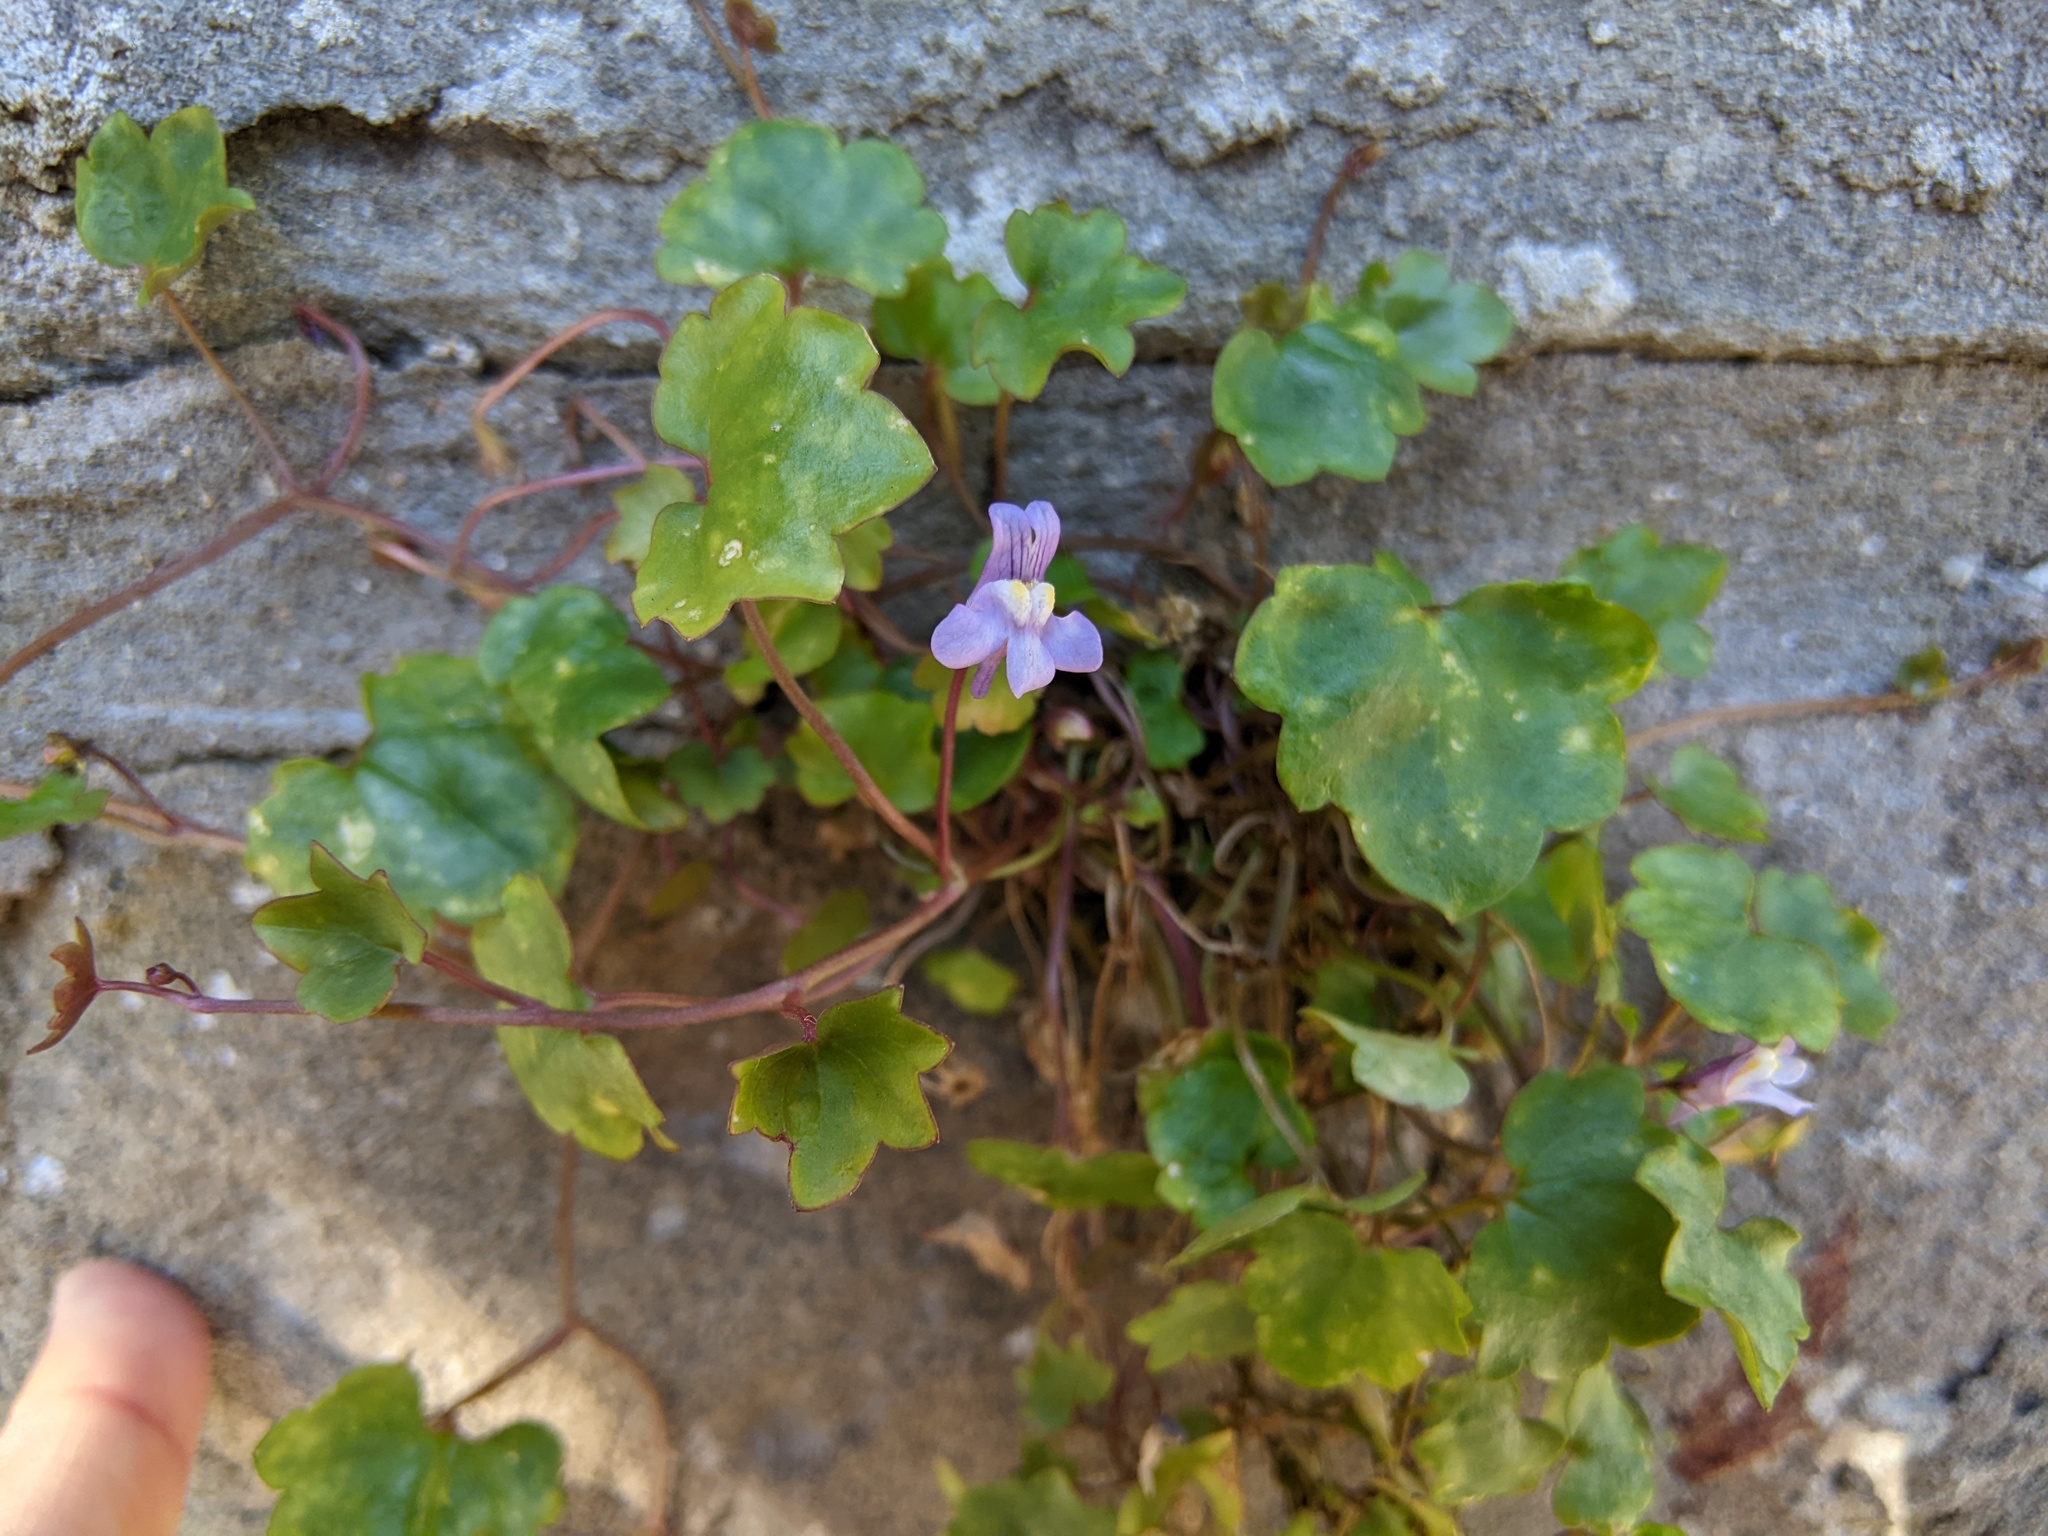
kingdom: Plantae
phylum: Tracheophyta
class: Magnoliopsida
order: Lamiales
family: Plantaginaceae
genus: Cymbalaria
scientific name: Cymbalaria muralis
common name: Ivy-leaved toadflax
